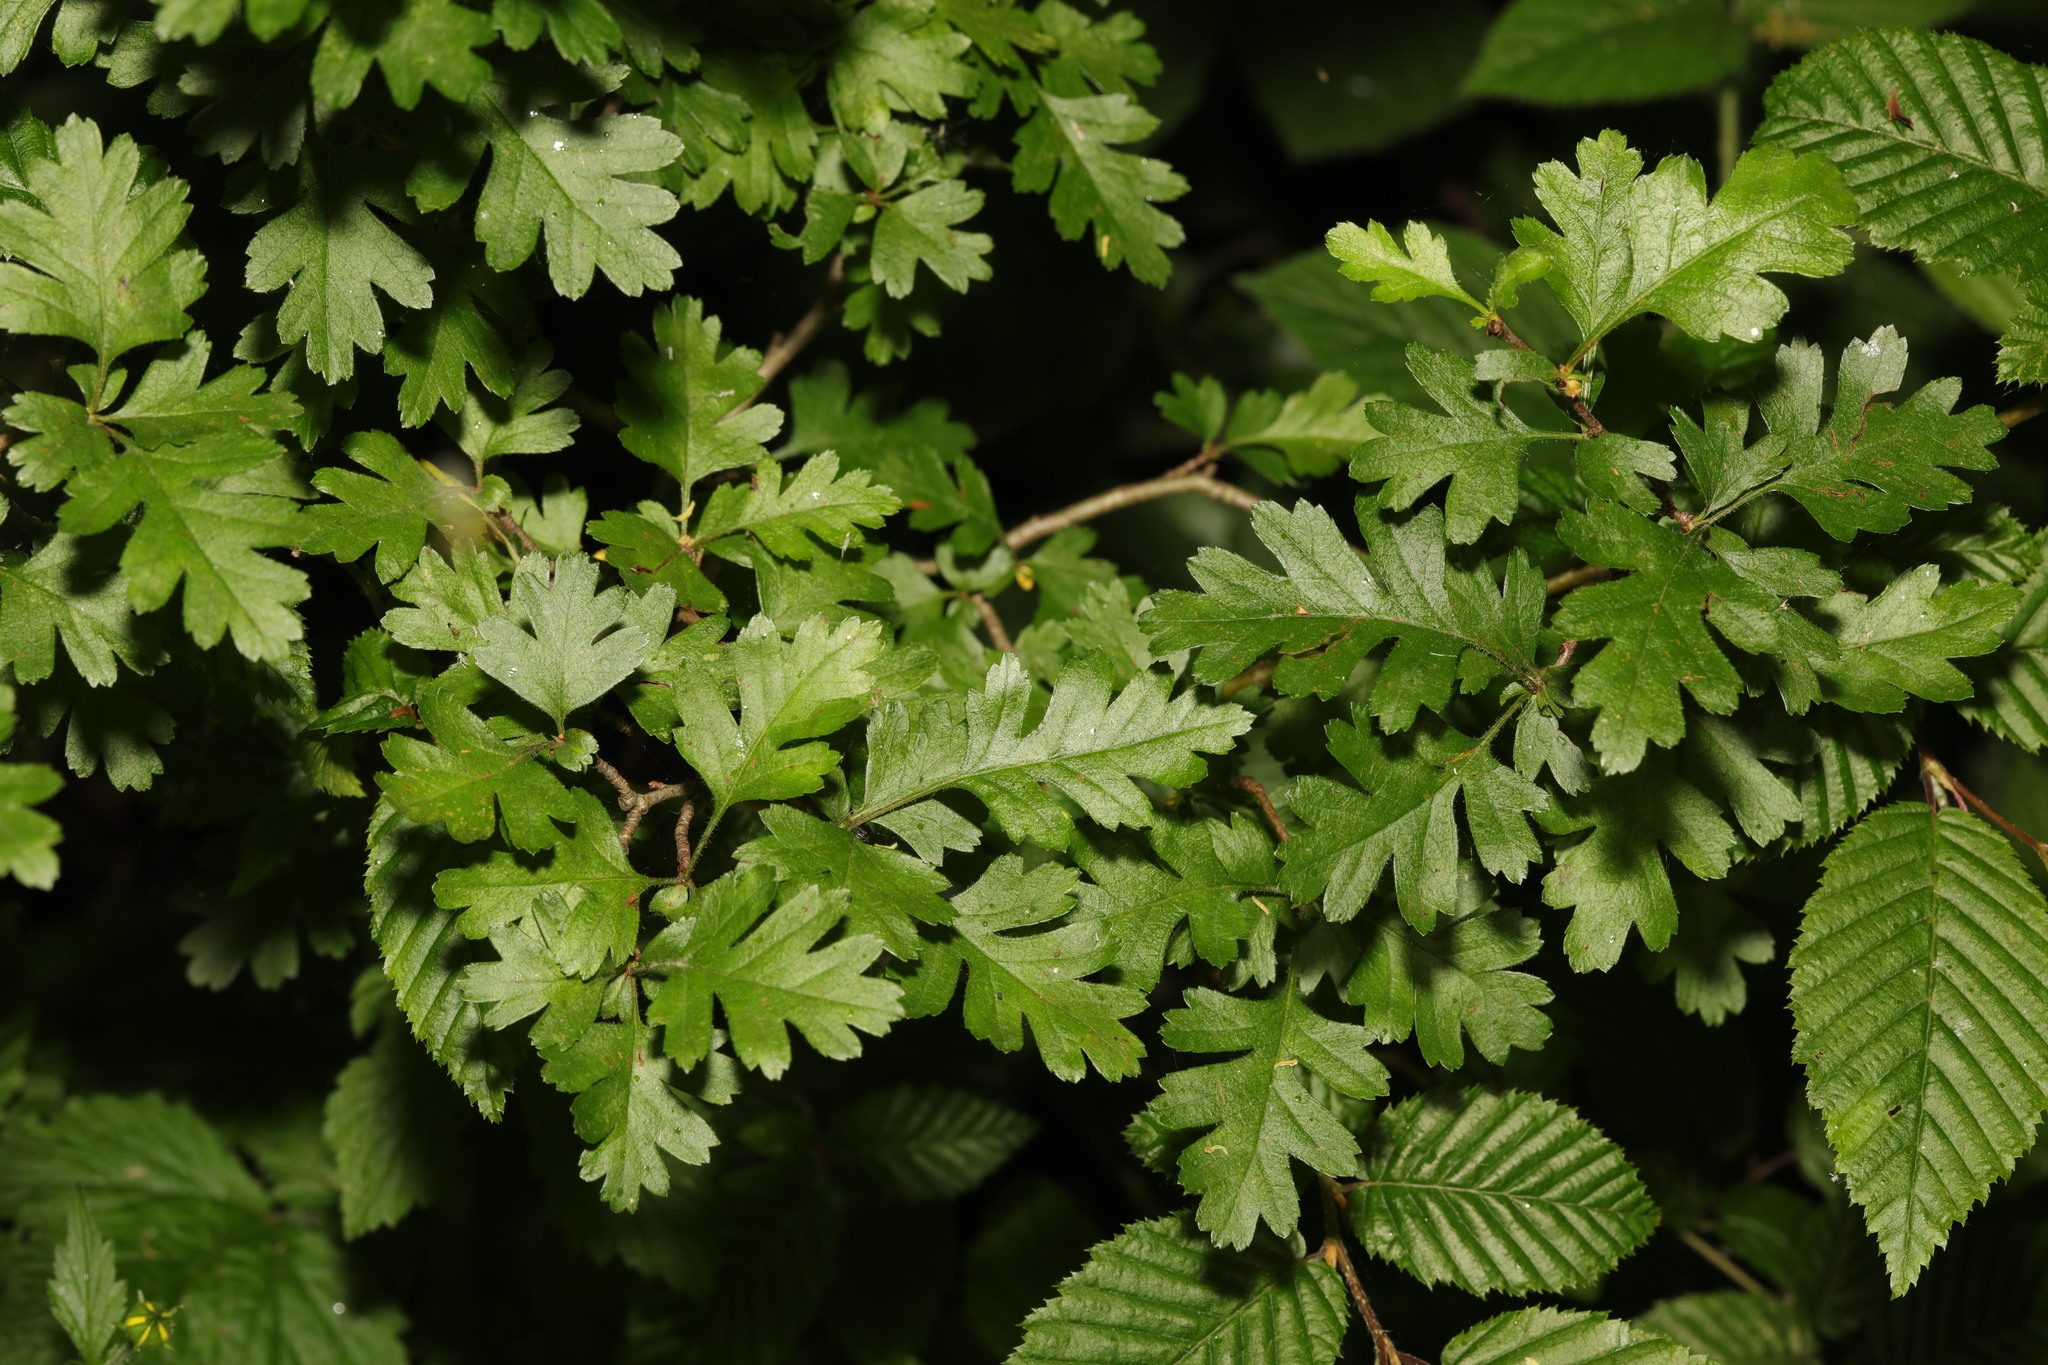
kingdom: Plantae
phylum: Tracheophyta
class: Magnoliopsida
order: Rosales
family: Rosaceae
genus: Crataegus
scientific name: Crataegus monogyna
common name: Hawthorn
